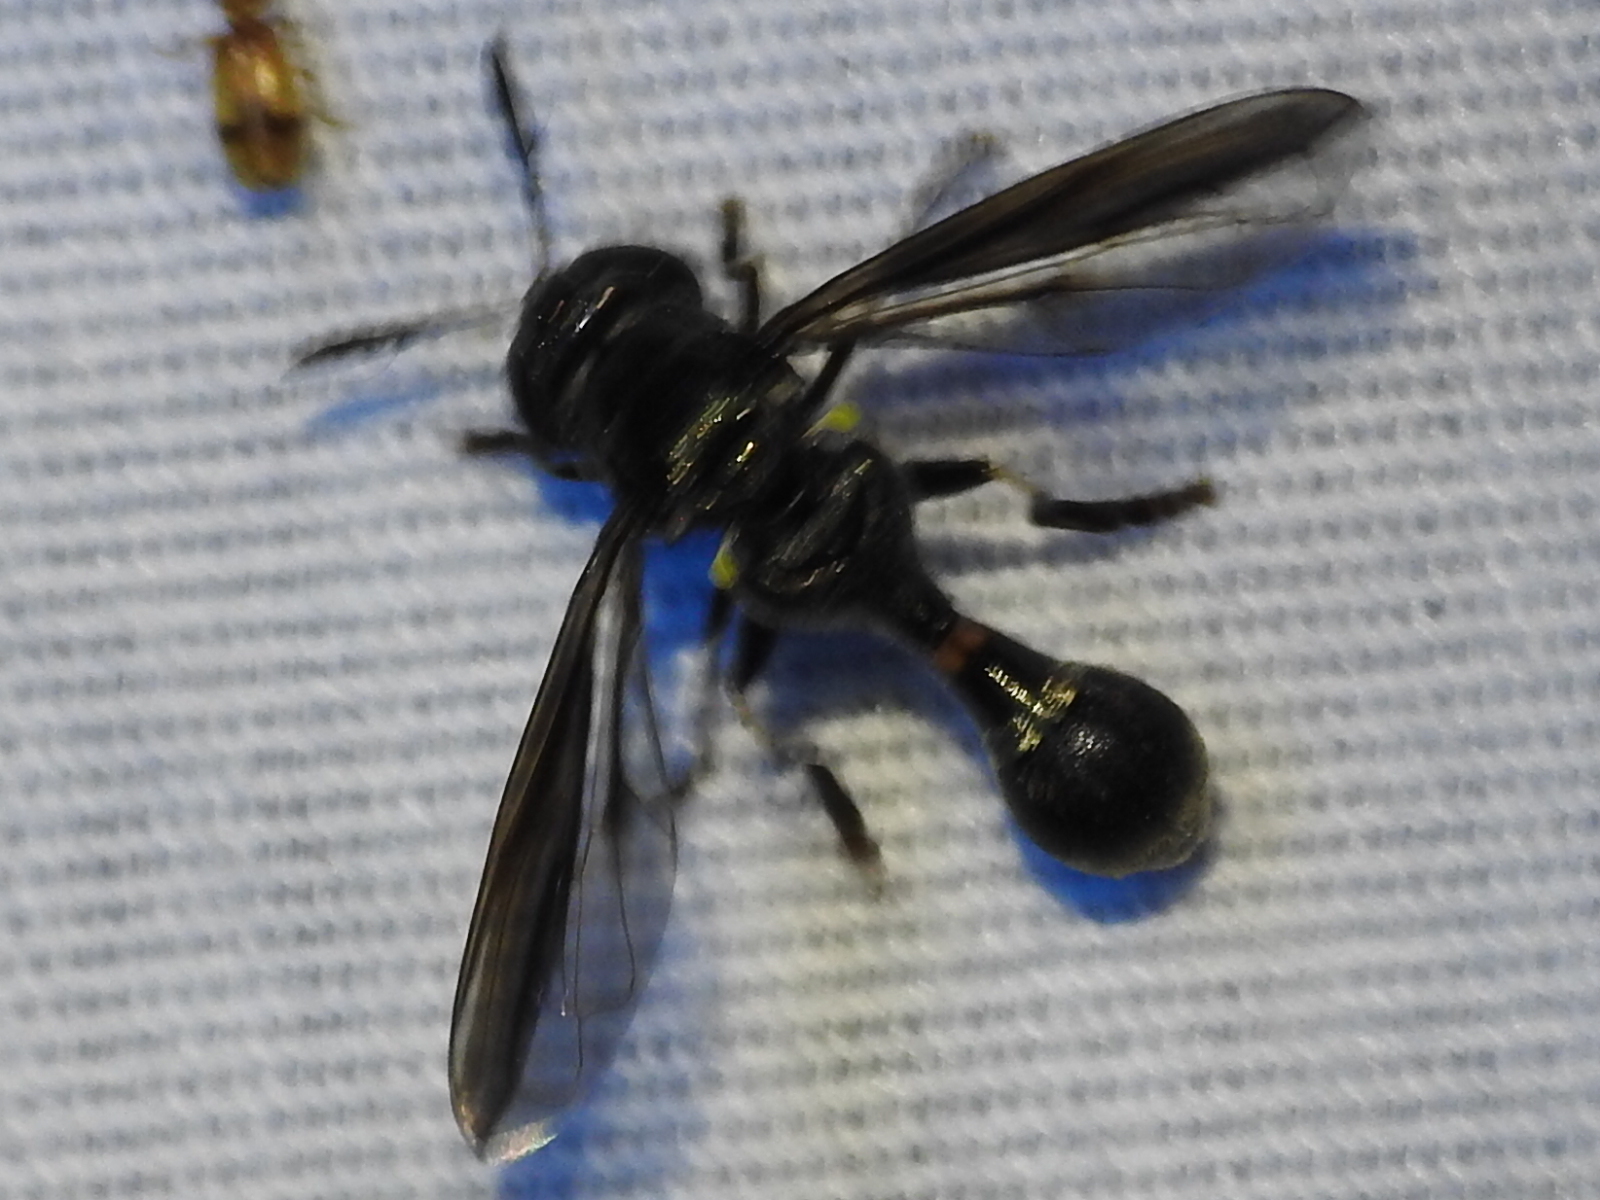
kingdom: Animalia
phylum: Arthropoda
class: Insecta
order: Diptera
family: Syrphidae
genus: Rhopalosyrphus
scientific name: Rhopalosyrphus guentherii
